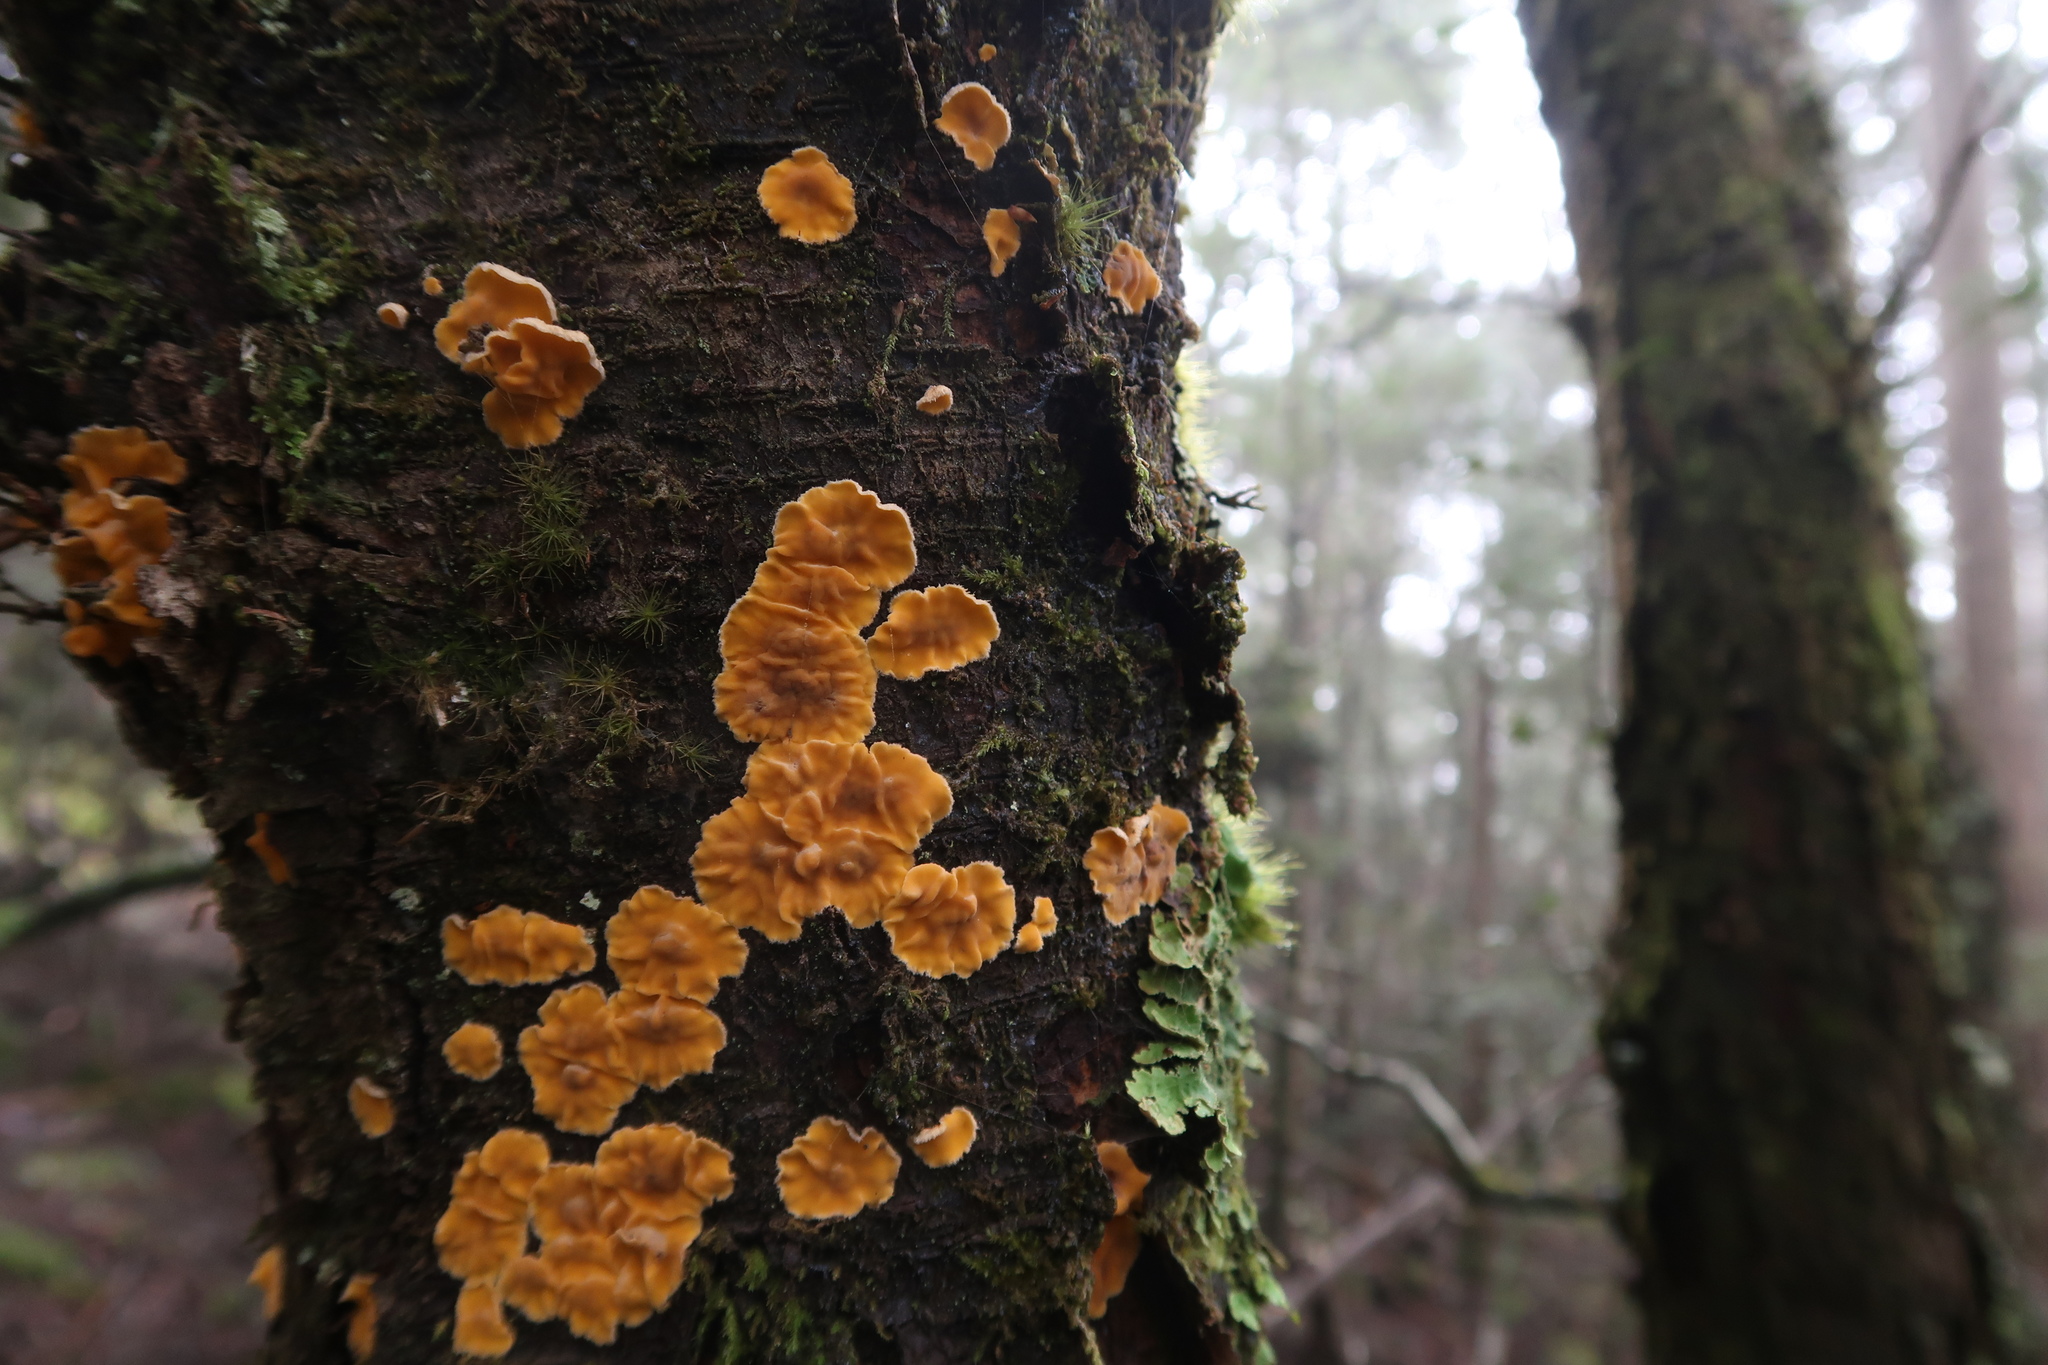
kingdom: Fungi
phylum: Basidiomycota
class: Agaricomycetes
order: Russulales
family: Stereaceae
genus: Stereodiscus
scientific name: Stereodiscus limonisporus
